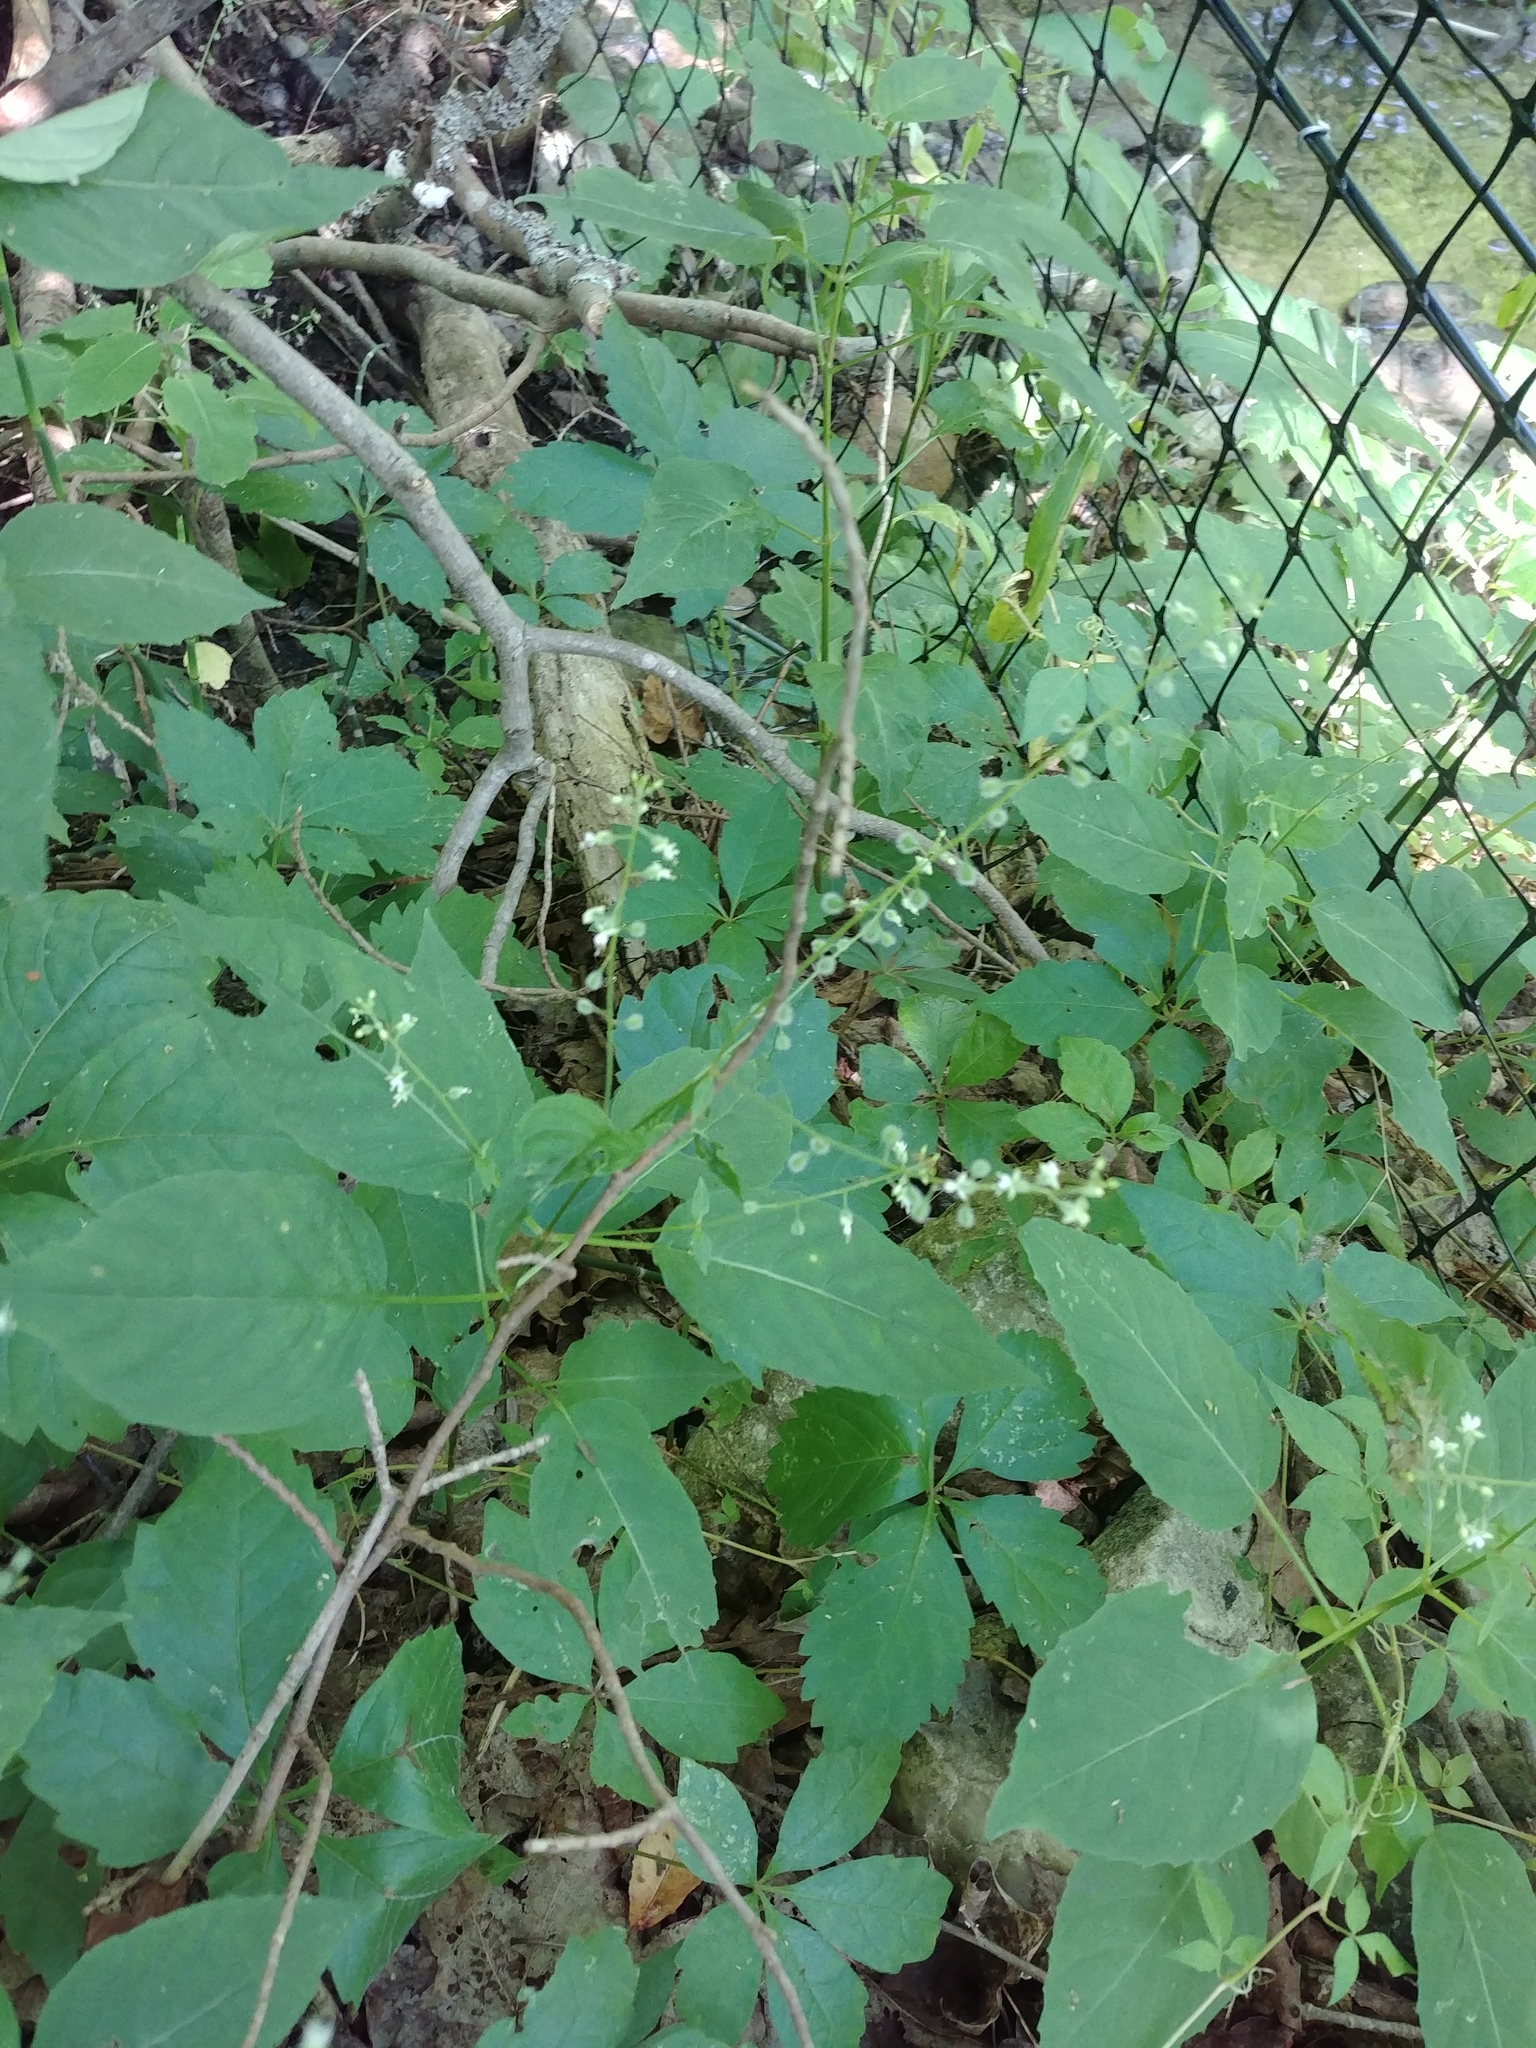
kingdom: Plantae
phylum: Tracheophyta
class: Magnoliopsida
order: Myrtales
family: Onagraceae
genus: Circaea
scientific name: Circaea canadensis
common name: Broad-leaved enchanter's nightshade
